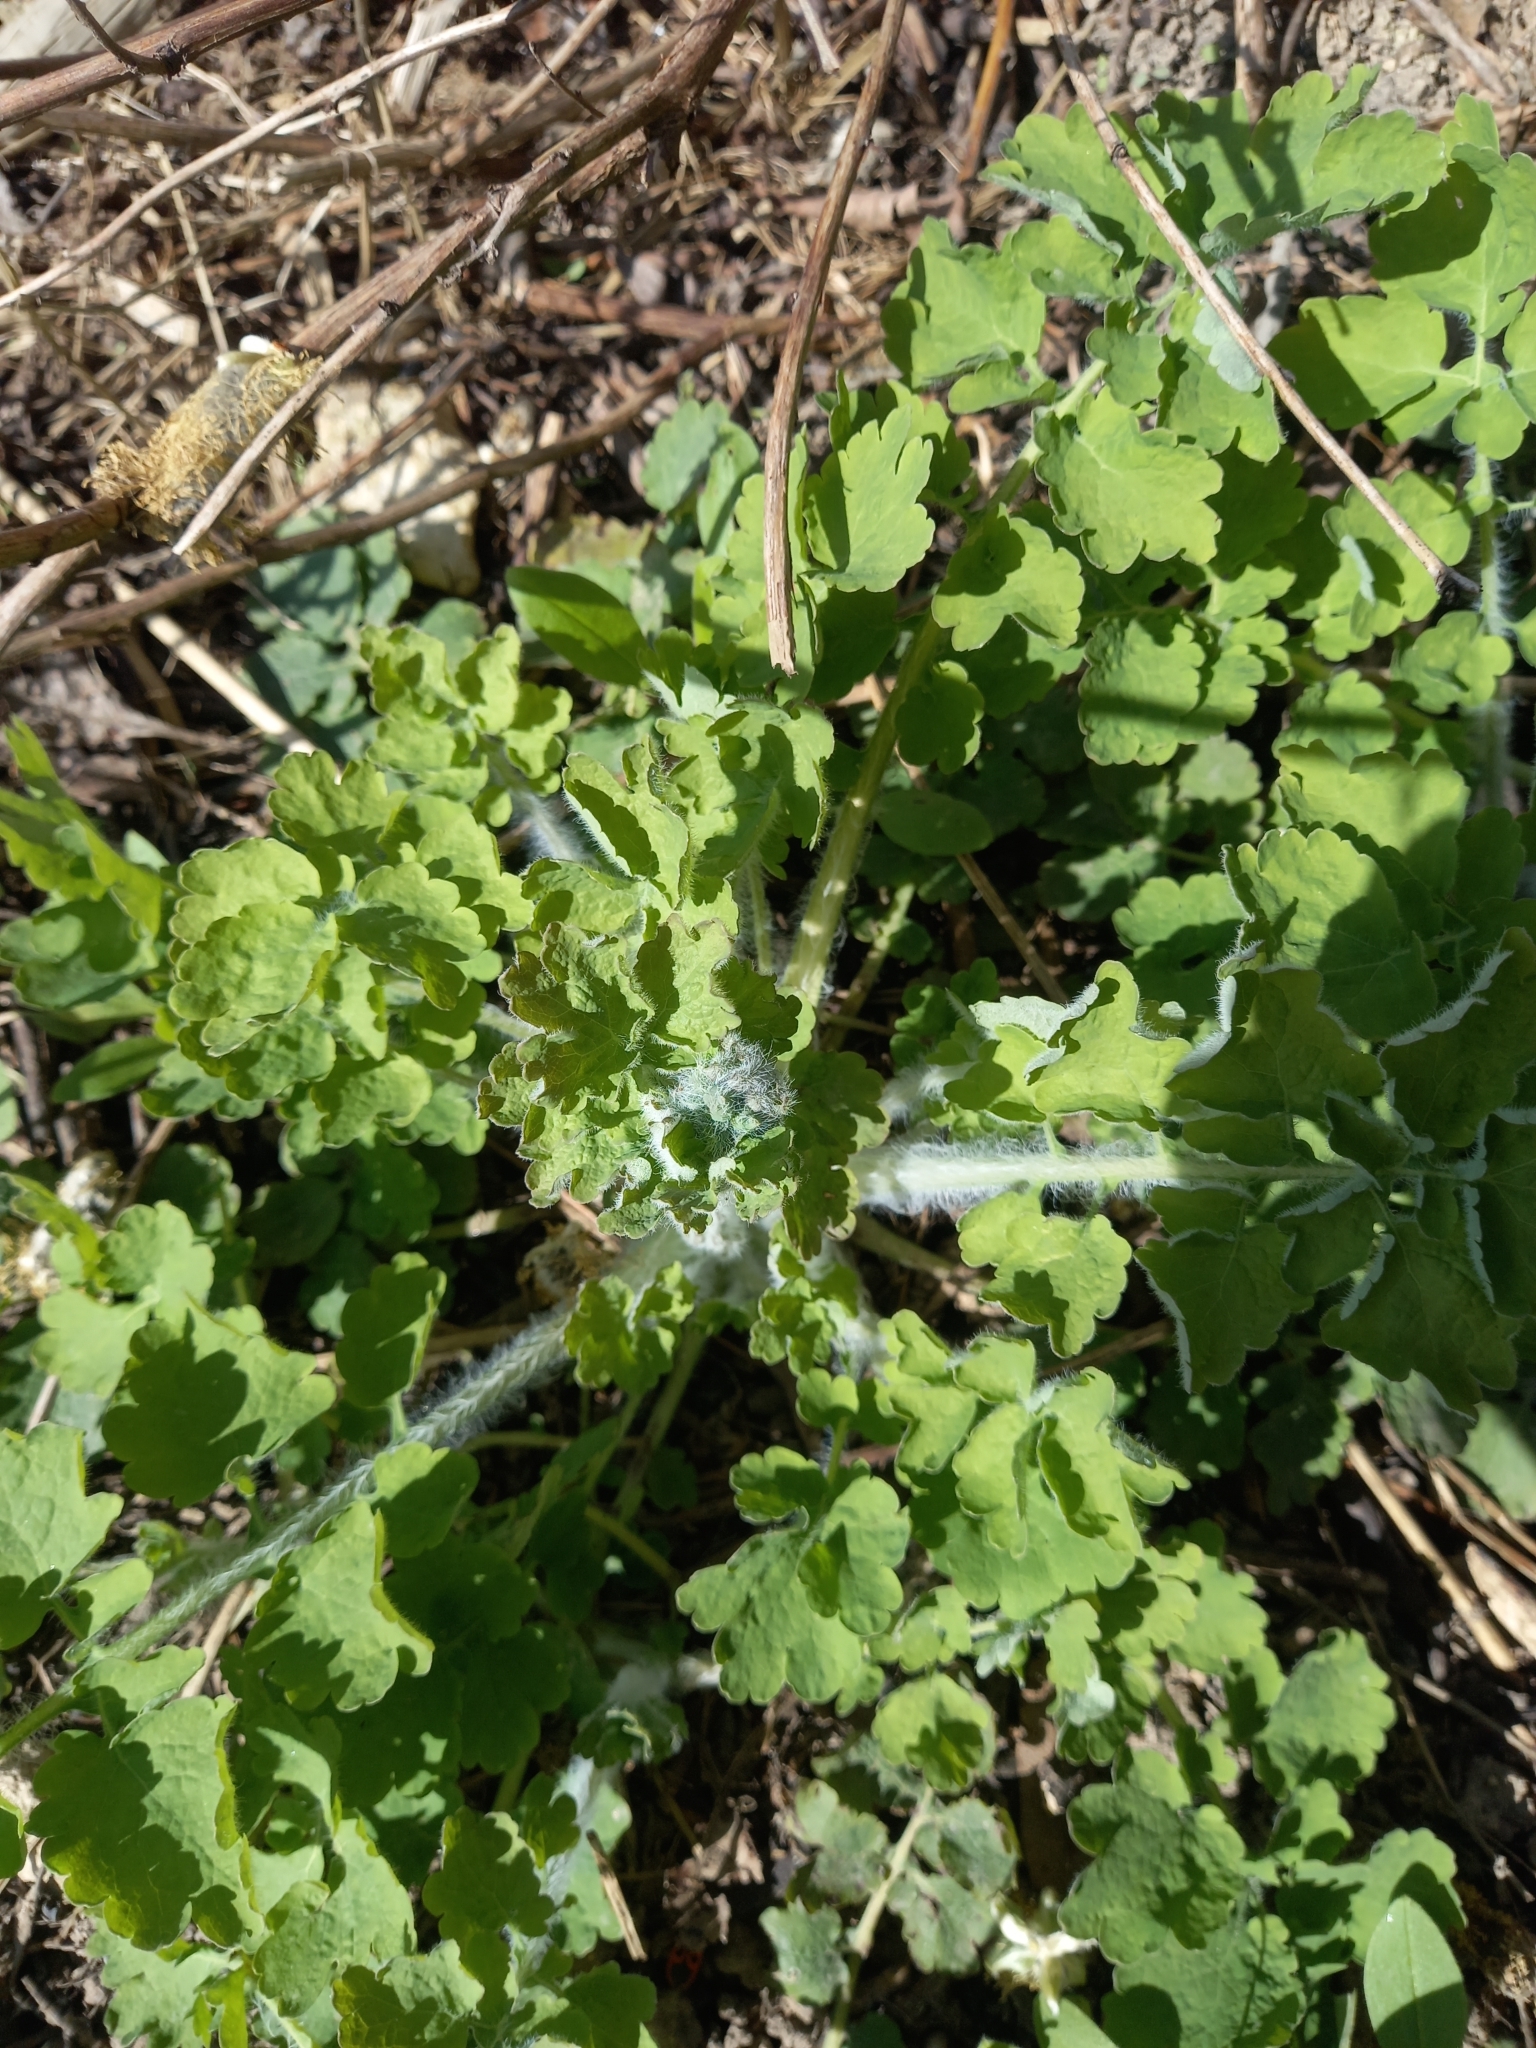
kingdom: Plantae
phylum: Tracheophyta
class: Magnoliopsida
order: Ranunculales
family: Papaveraceae
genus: Chelidonium
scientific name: Chelidonium majus
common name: Greater celandine
